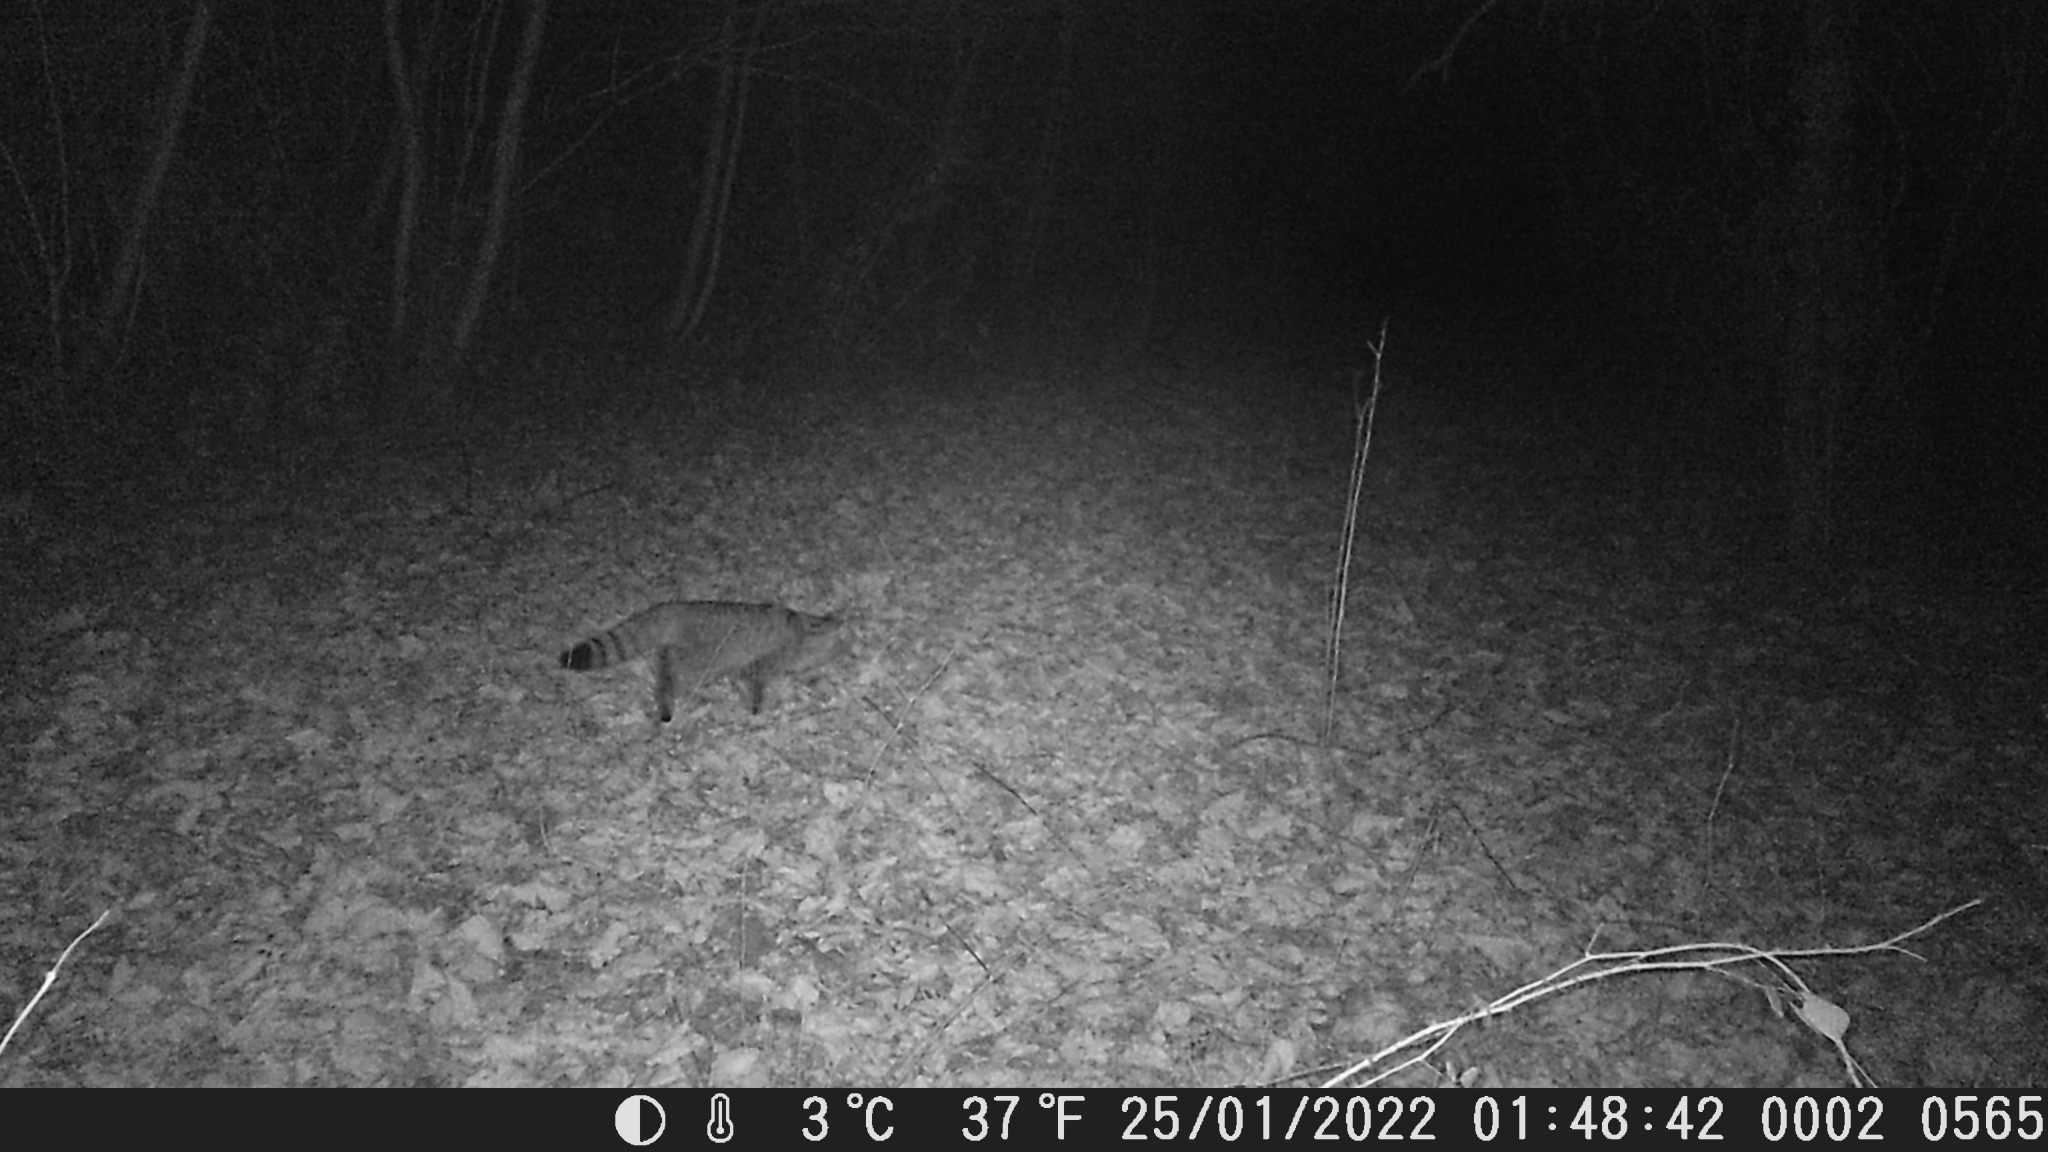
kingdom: Animalia
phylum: Chordata
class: Mammalia
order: Carnivora
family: Felidae
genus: Felis
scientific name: Felis silvestris
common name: Wildcat
